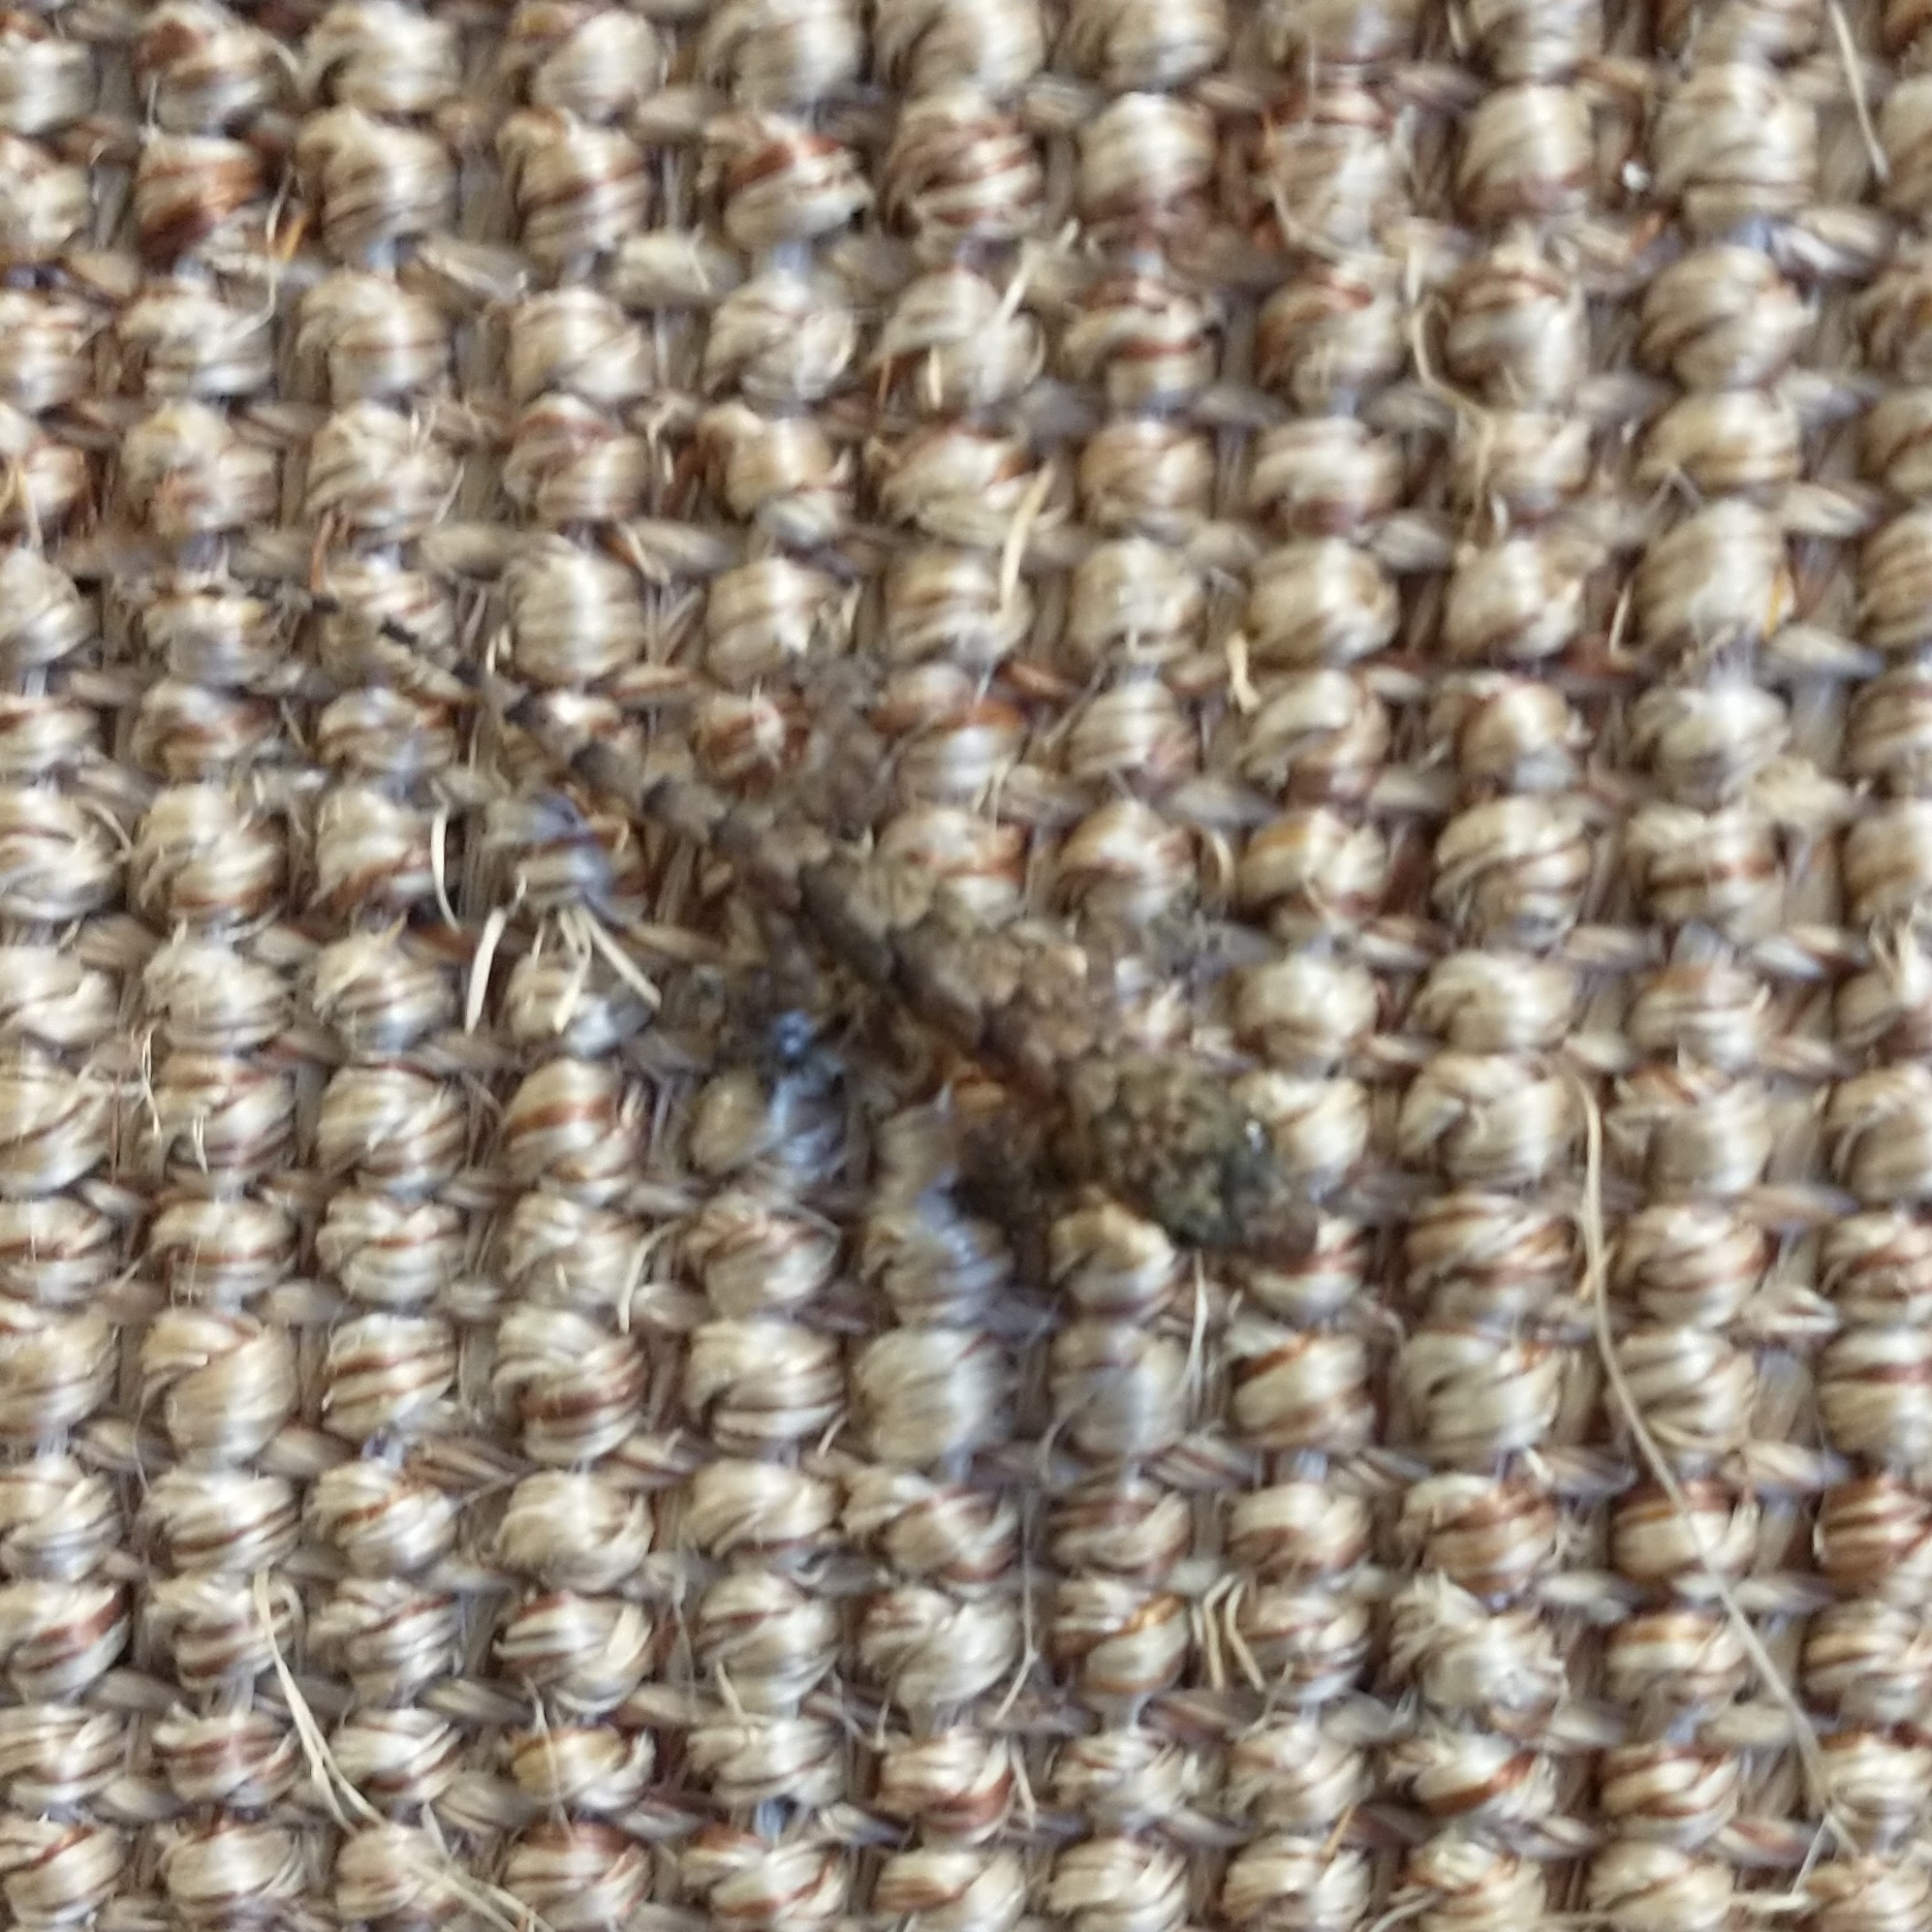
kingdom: Animalia
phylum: Chordata
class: Squamata
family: Gekkonidae
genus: Hemidactylus
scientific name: Hemidactylus mabouia
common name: House gecko
